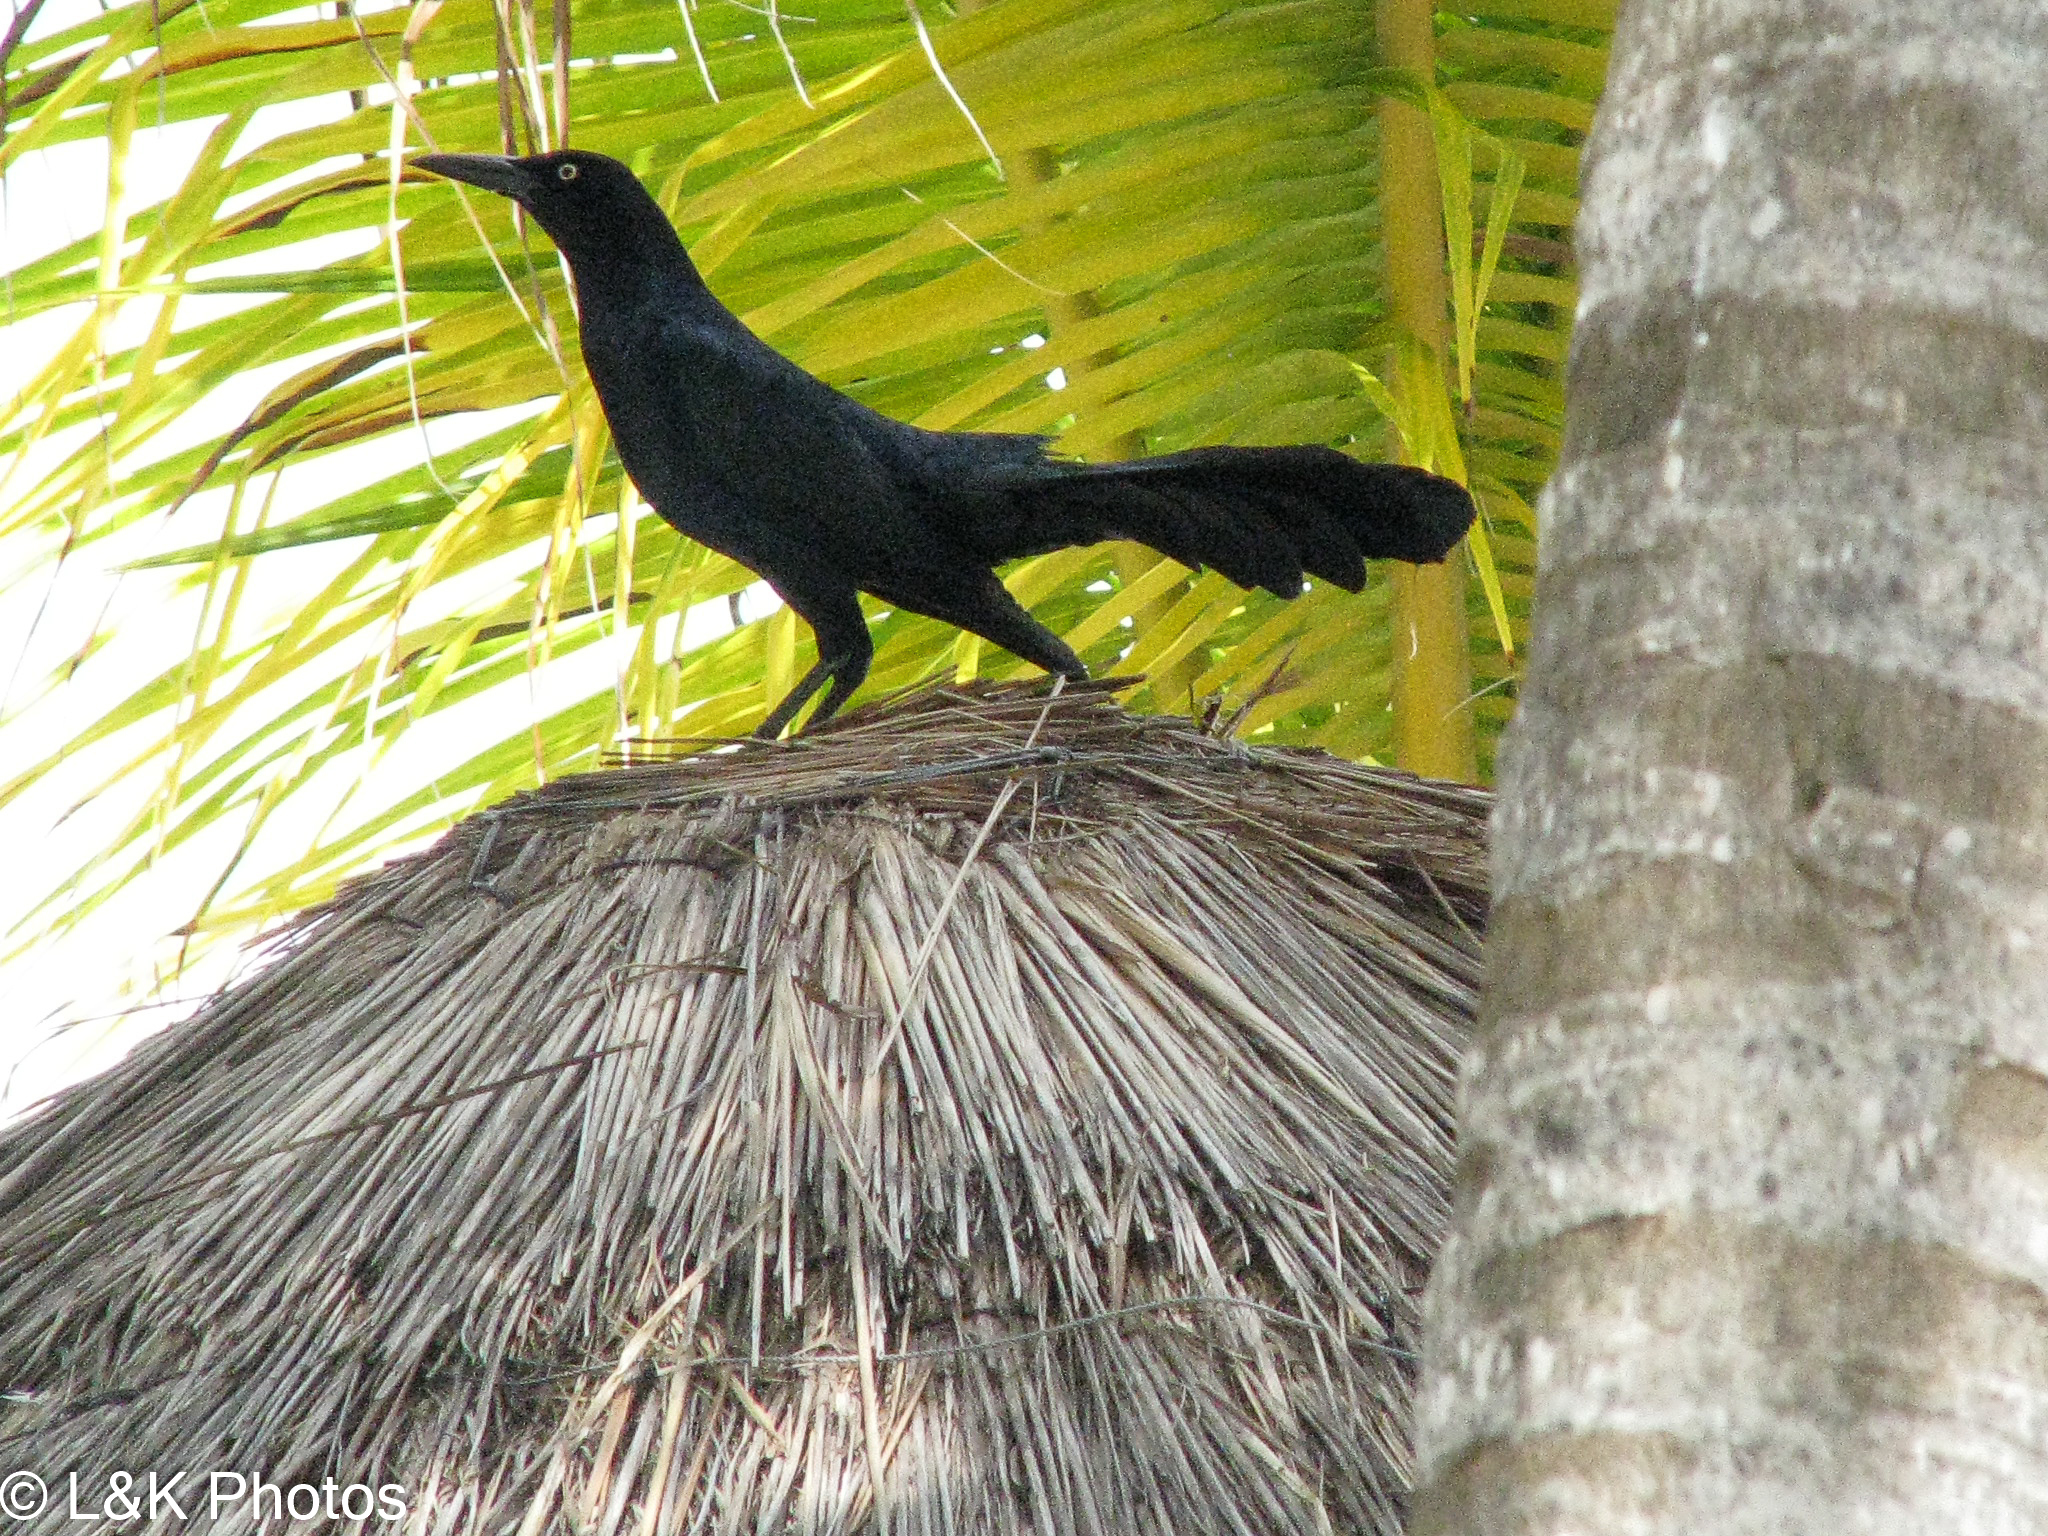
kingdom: Animalia
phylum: Chordata
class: Aves
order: Passeriformes
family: Icteridae
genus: Quiscalus
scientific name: Quiscalus mexicanus
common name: Great-tailed grackle
